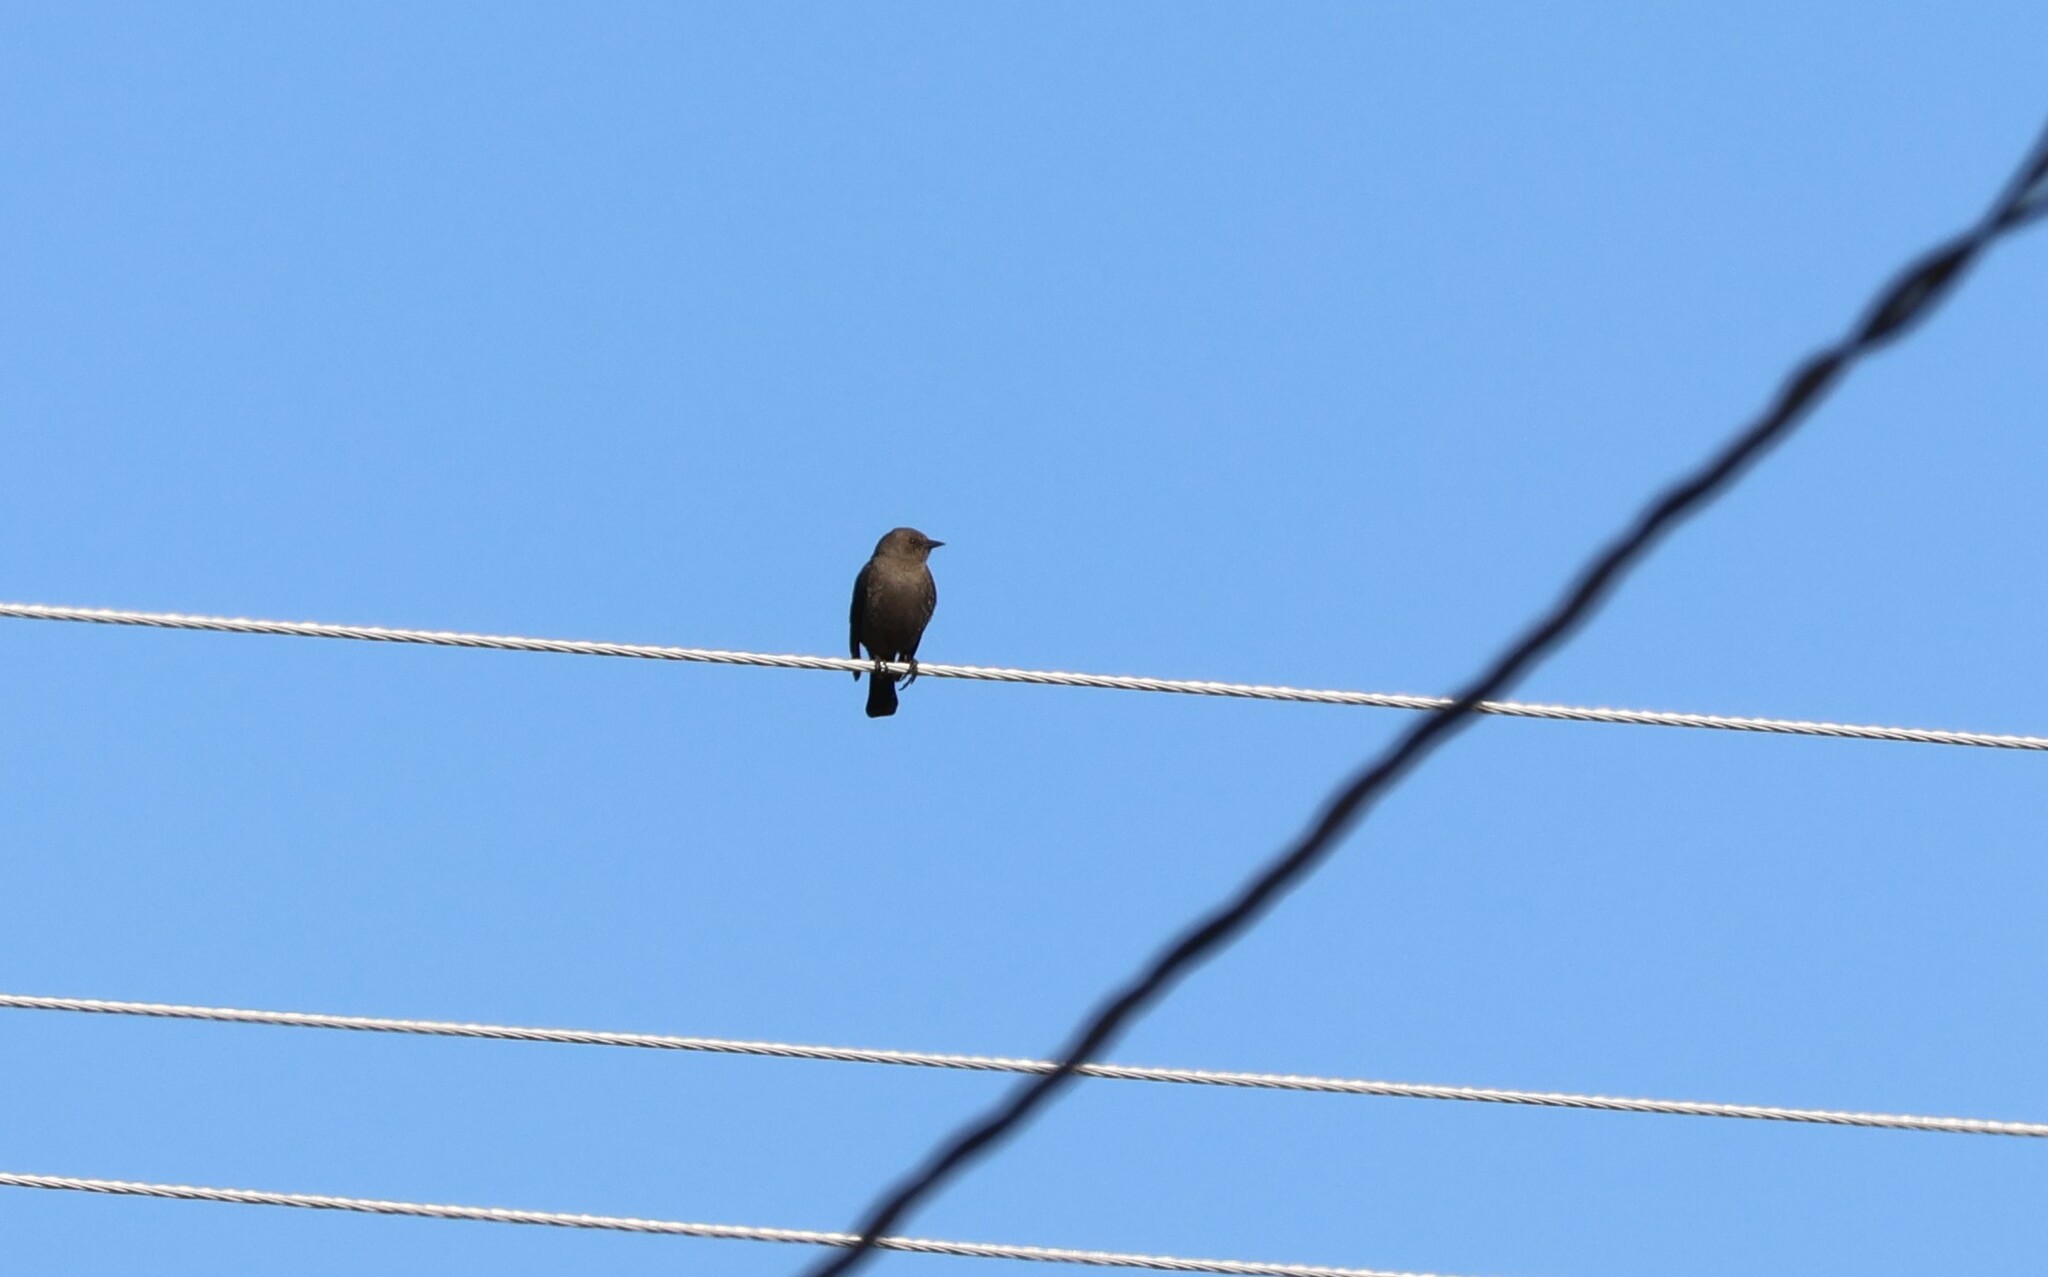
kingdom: Animalia
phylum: Chordata
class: Aves
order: Passeriformes
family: Icteridae
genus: Euphagus
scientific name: Euphagus cyanocephalus
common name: Brewer's blackbird
